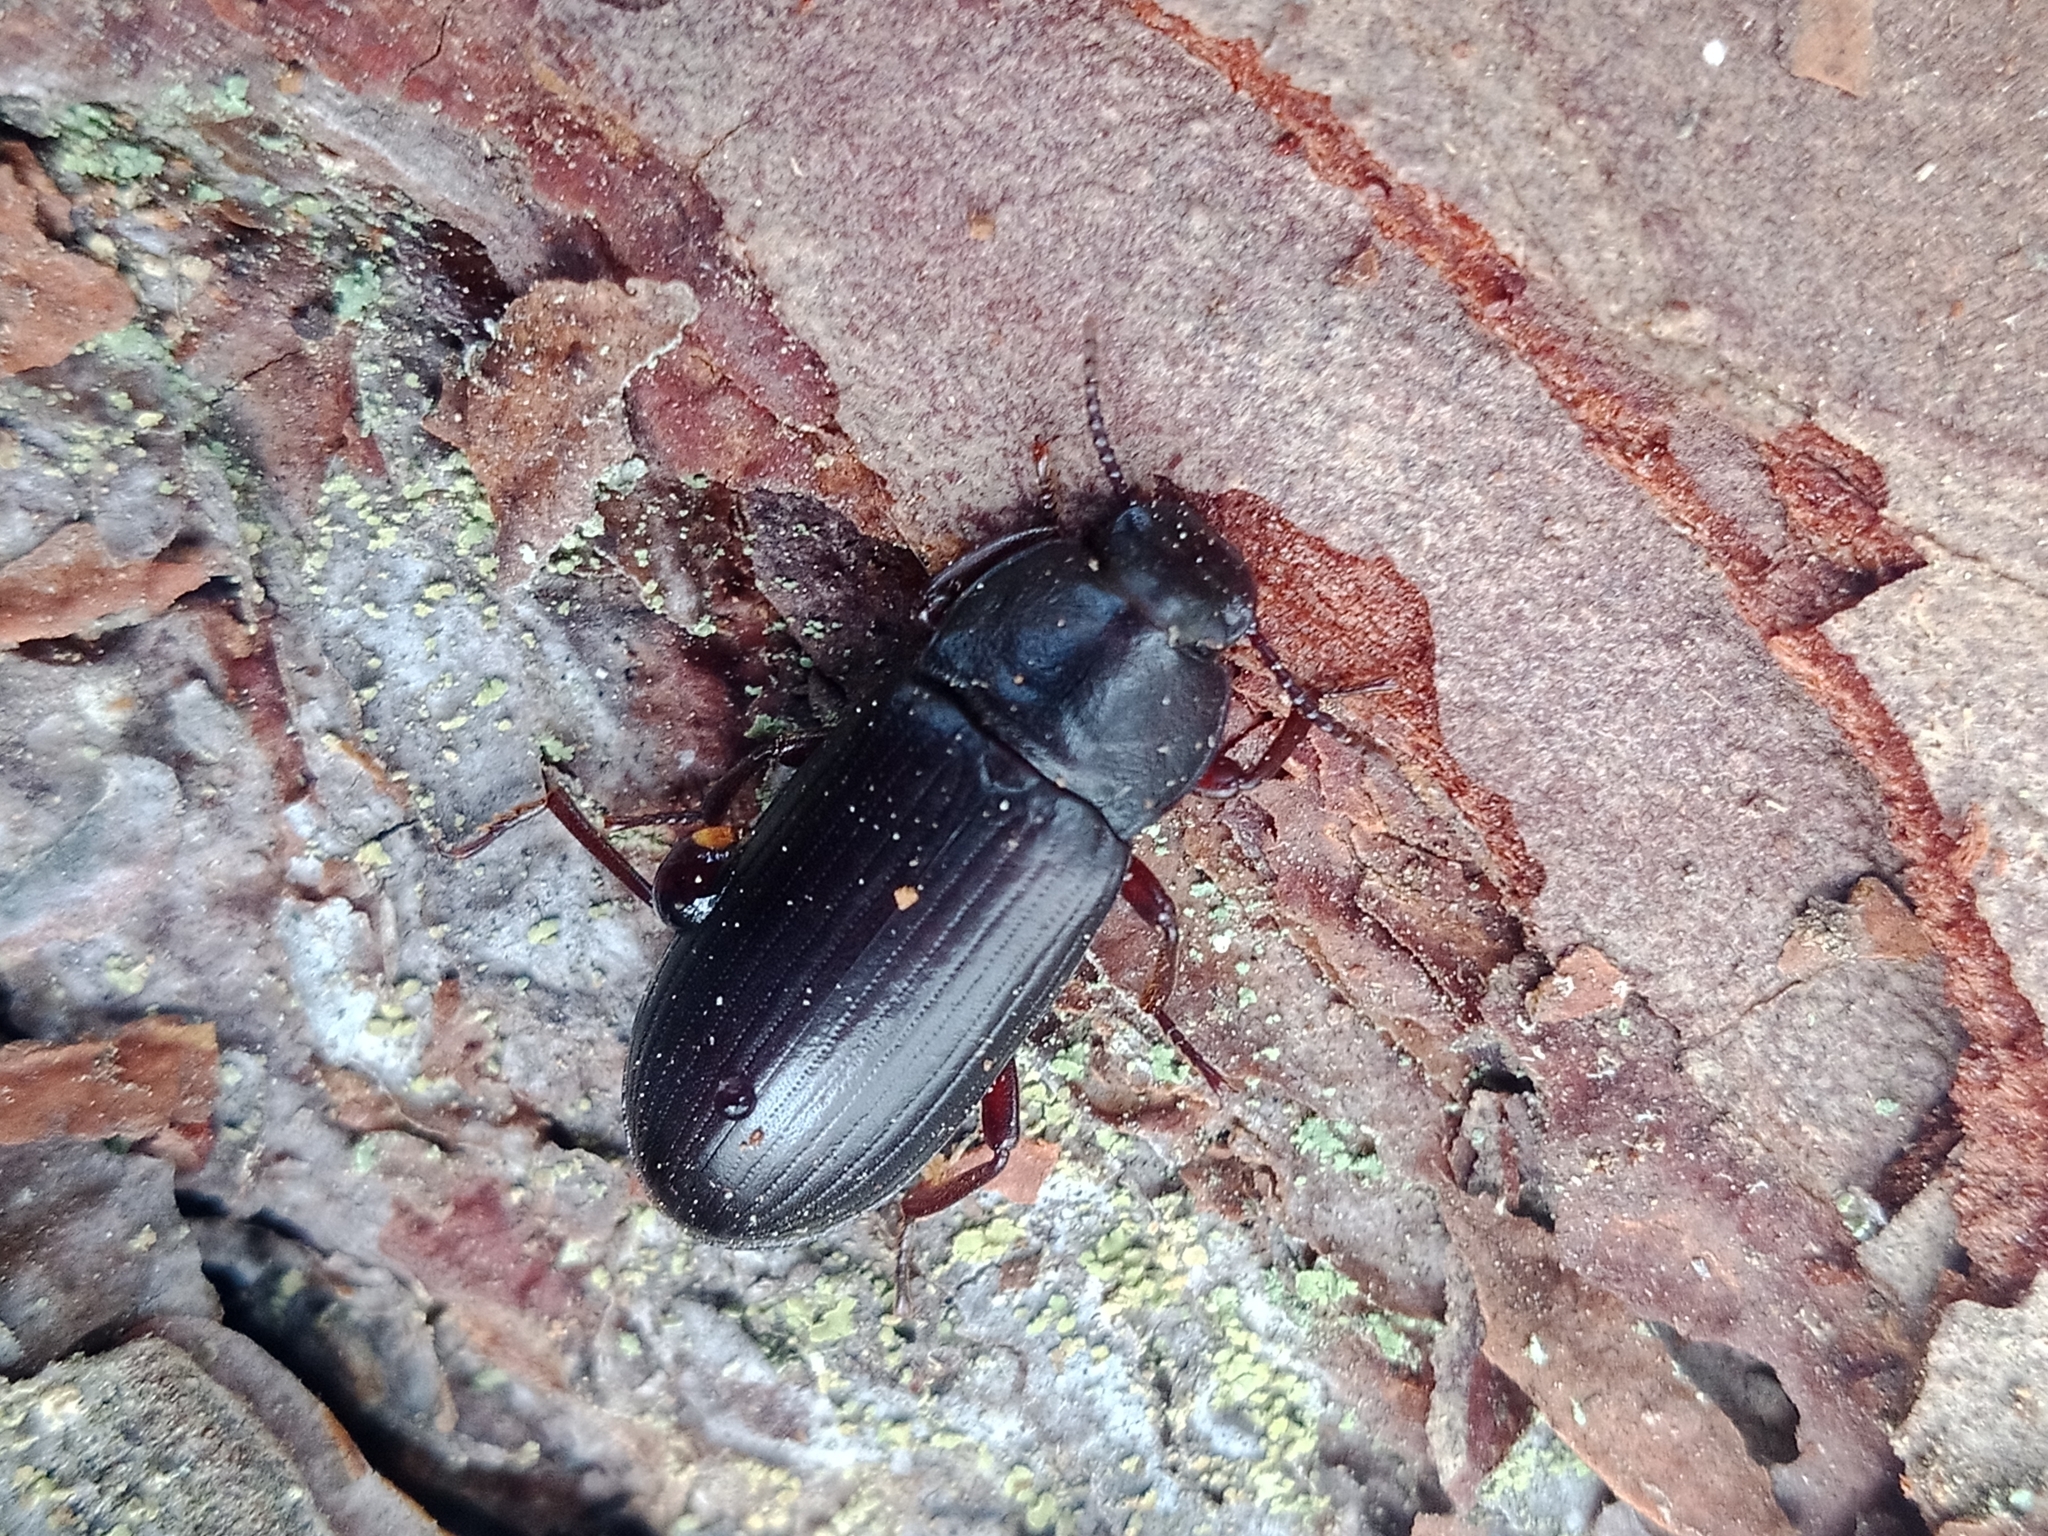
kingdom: Animalia
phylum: Arthropoda
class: Insecta
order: Coleoptera
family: Tenebrionidae
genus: Neatus
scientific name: Neatus picipes
